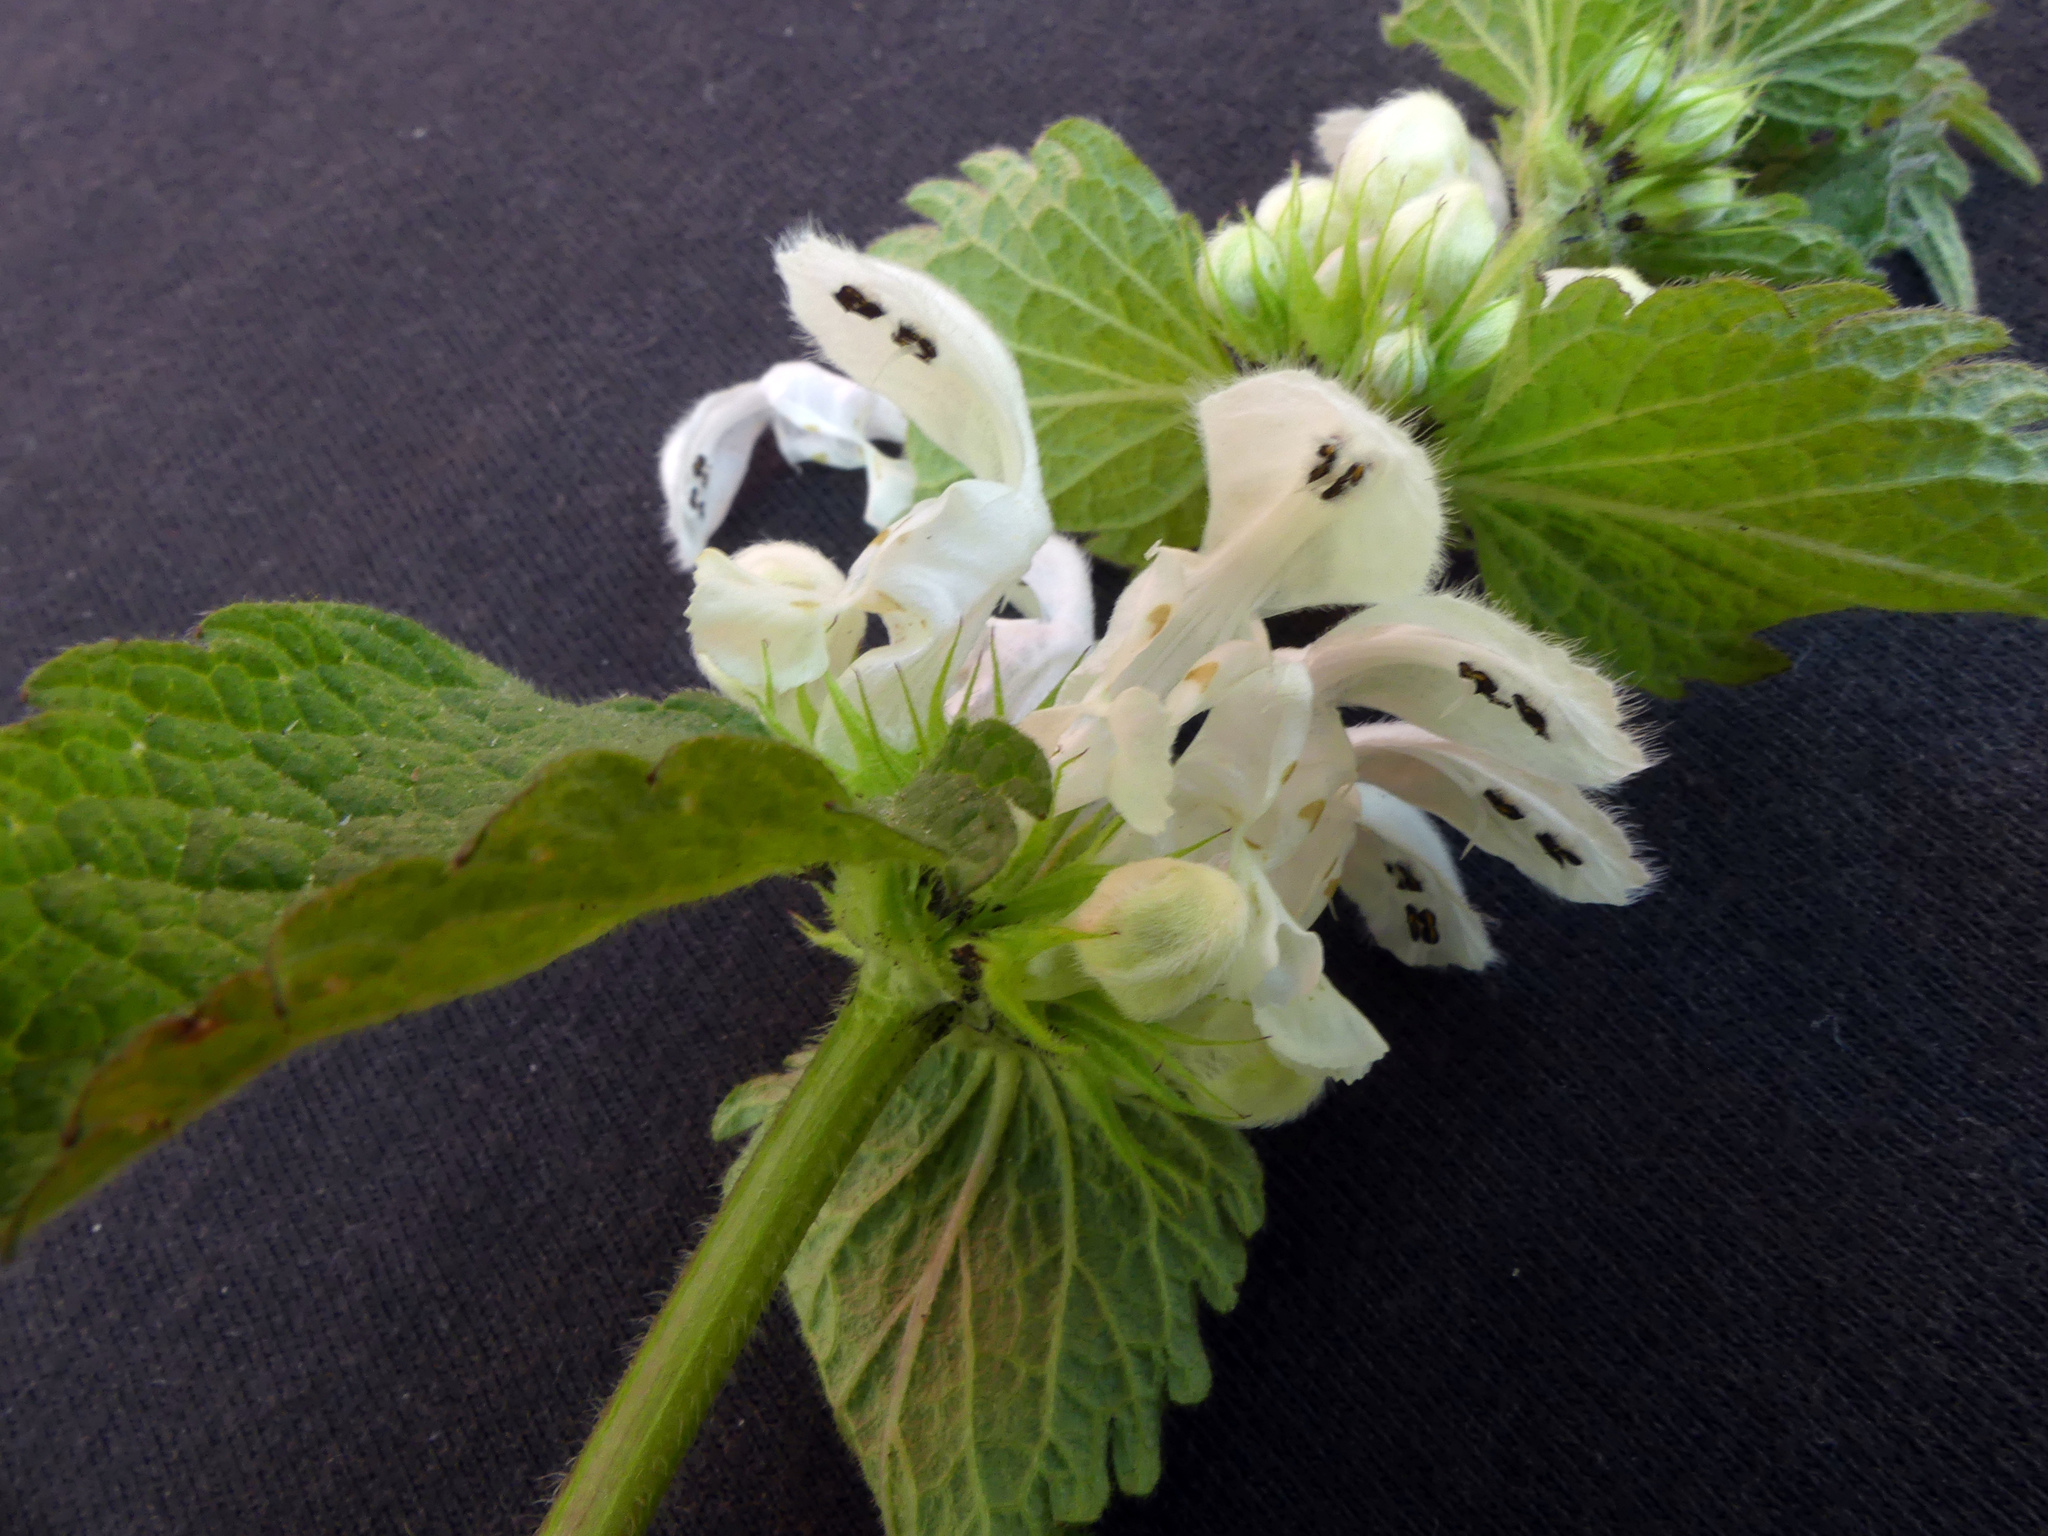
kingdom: Plantae
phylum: Tracheophyta
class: Magnoliopsida
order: Lamiales
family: Lamiaceae
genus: Lamium
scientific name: Lamium album
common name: White dead-nettle
